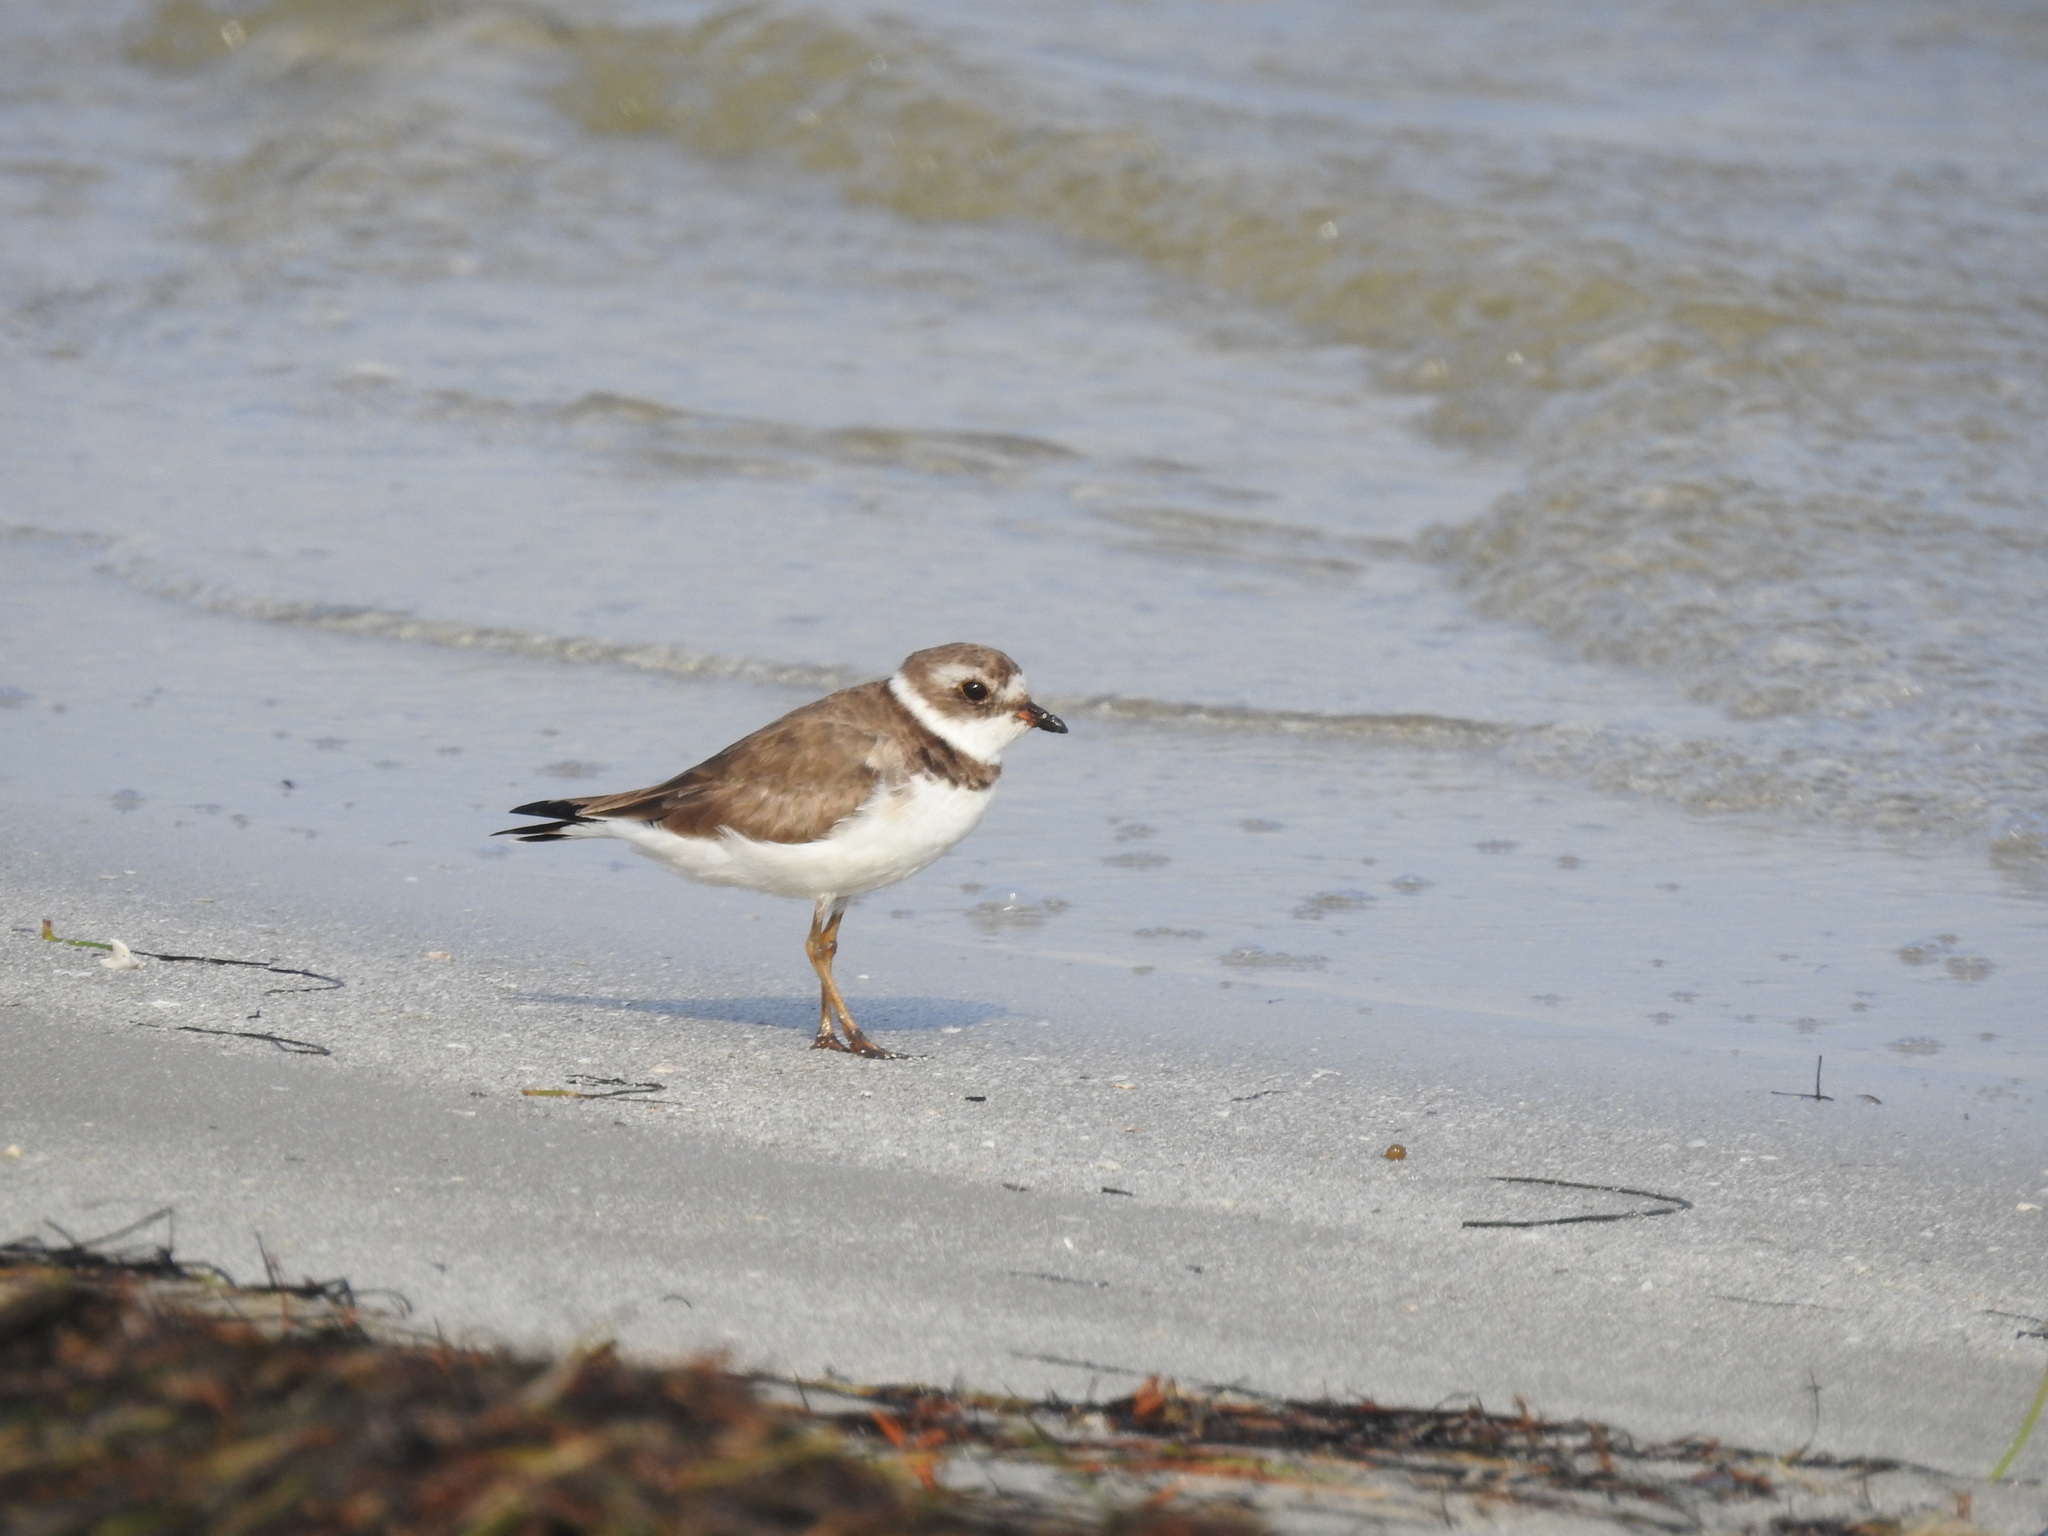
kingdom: Animalia
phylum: Chordata
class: Aves
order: Charadriiformes
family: Charadriidae
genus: Charadrius
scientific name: Charadrius semipalmatus
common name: Semipalmated plover
